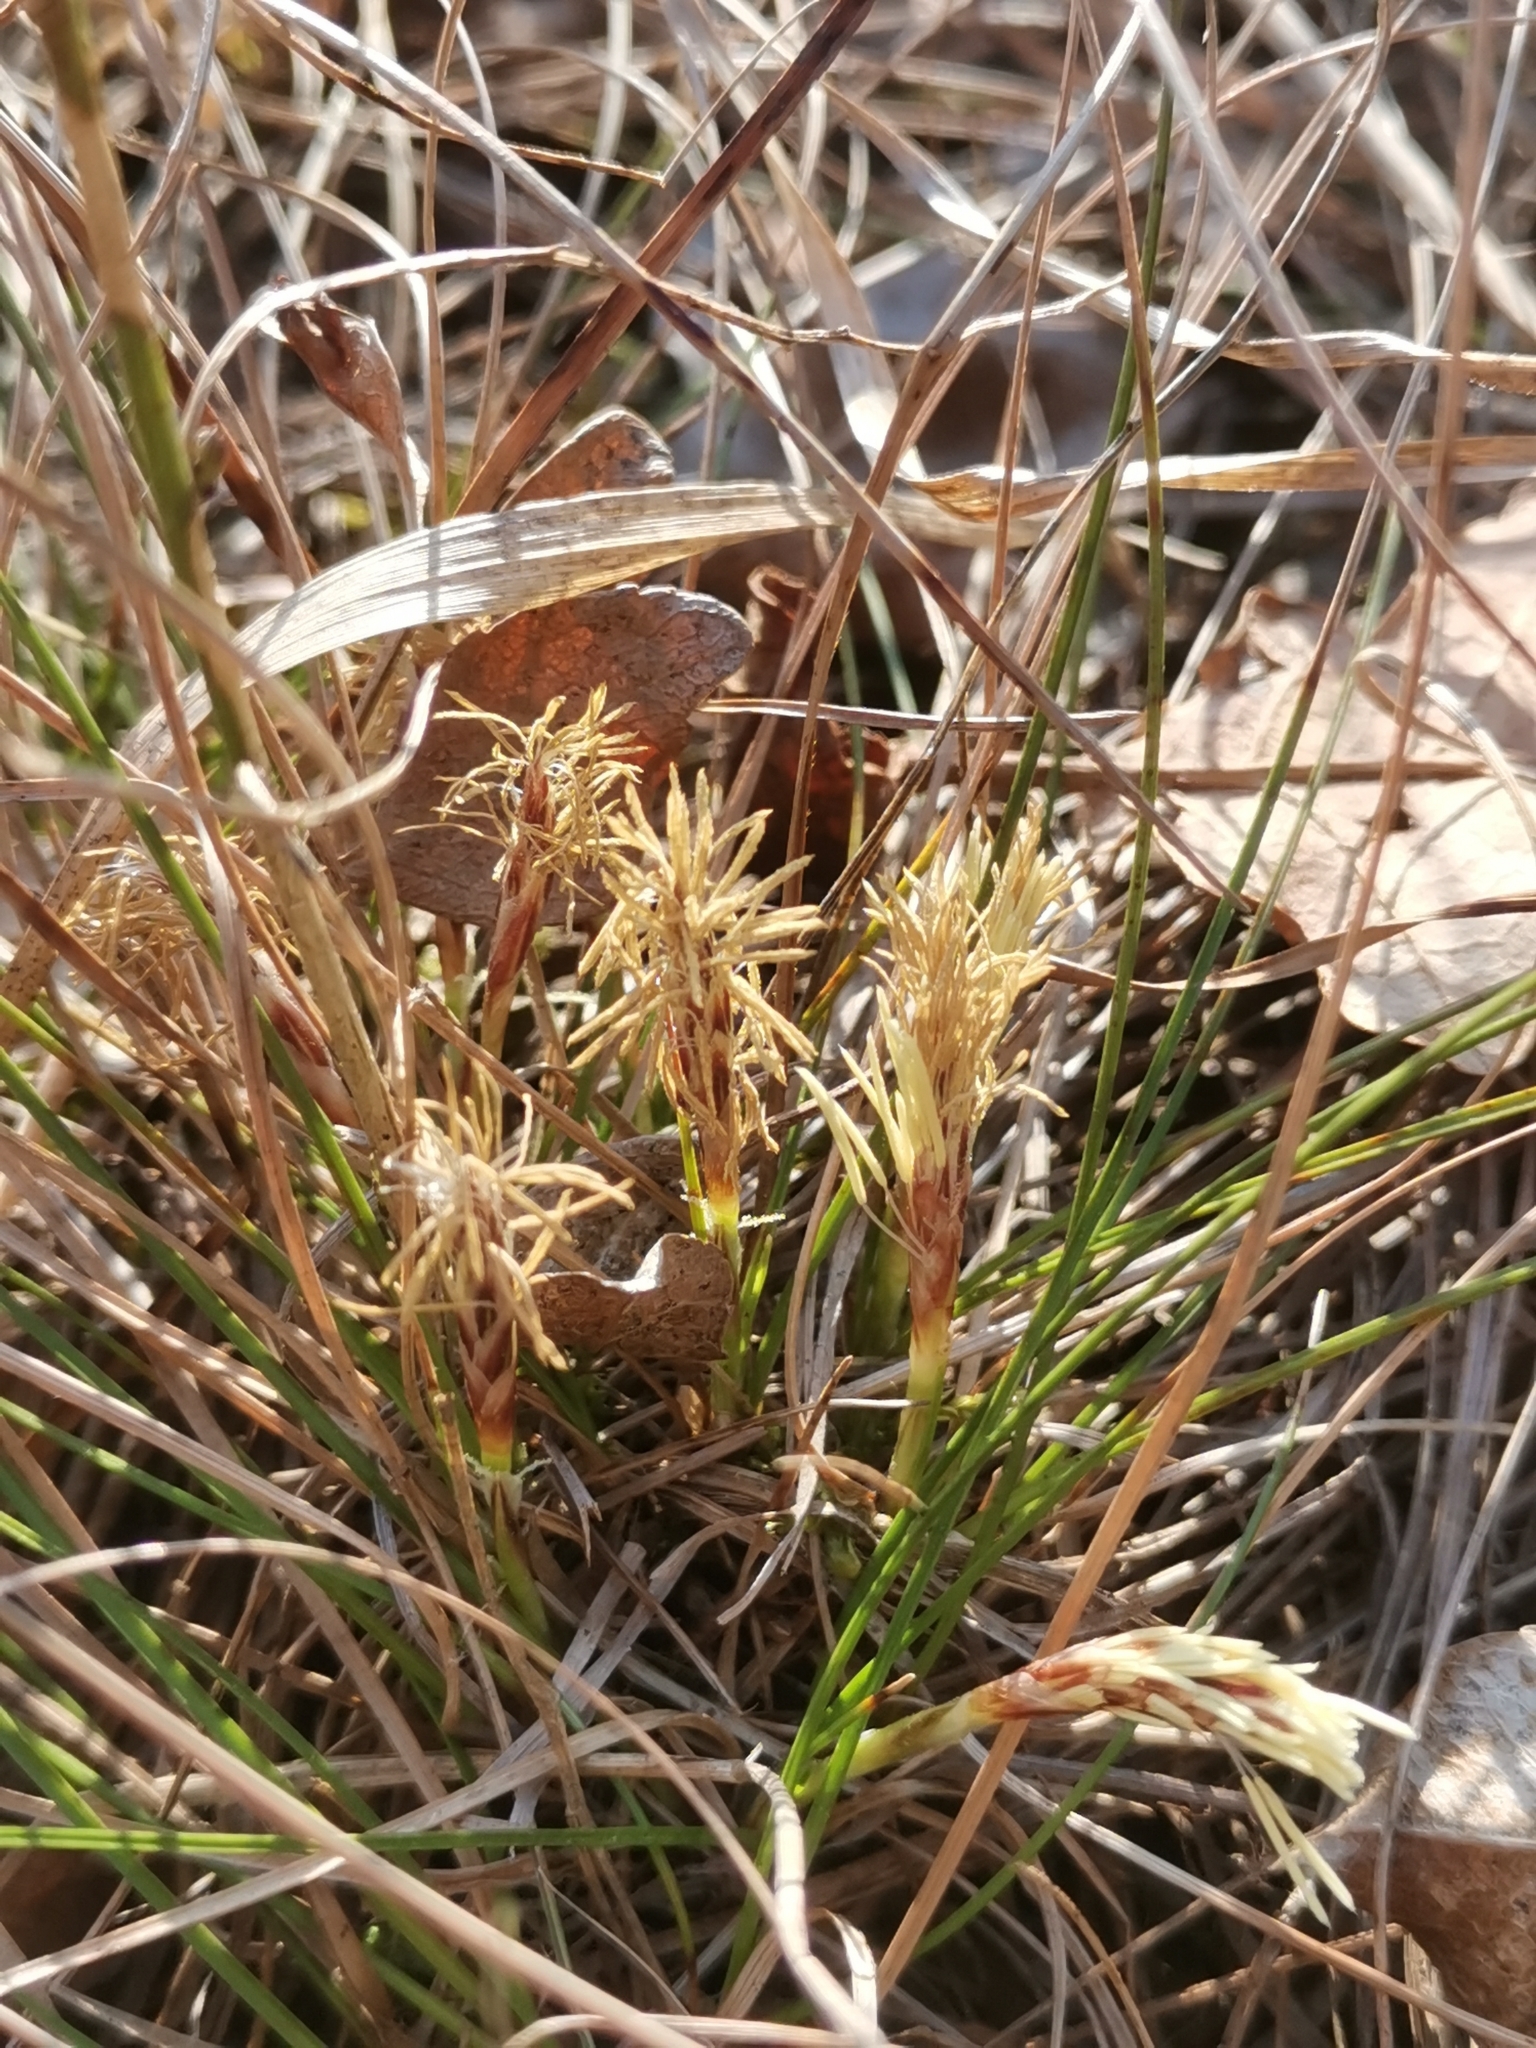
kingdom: Plantae
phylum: Tracheophyta
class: Liliopsida
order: Poales
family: Cyperaceae
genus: Carex
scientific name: Carex humilis
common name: Dwarf sedge
